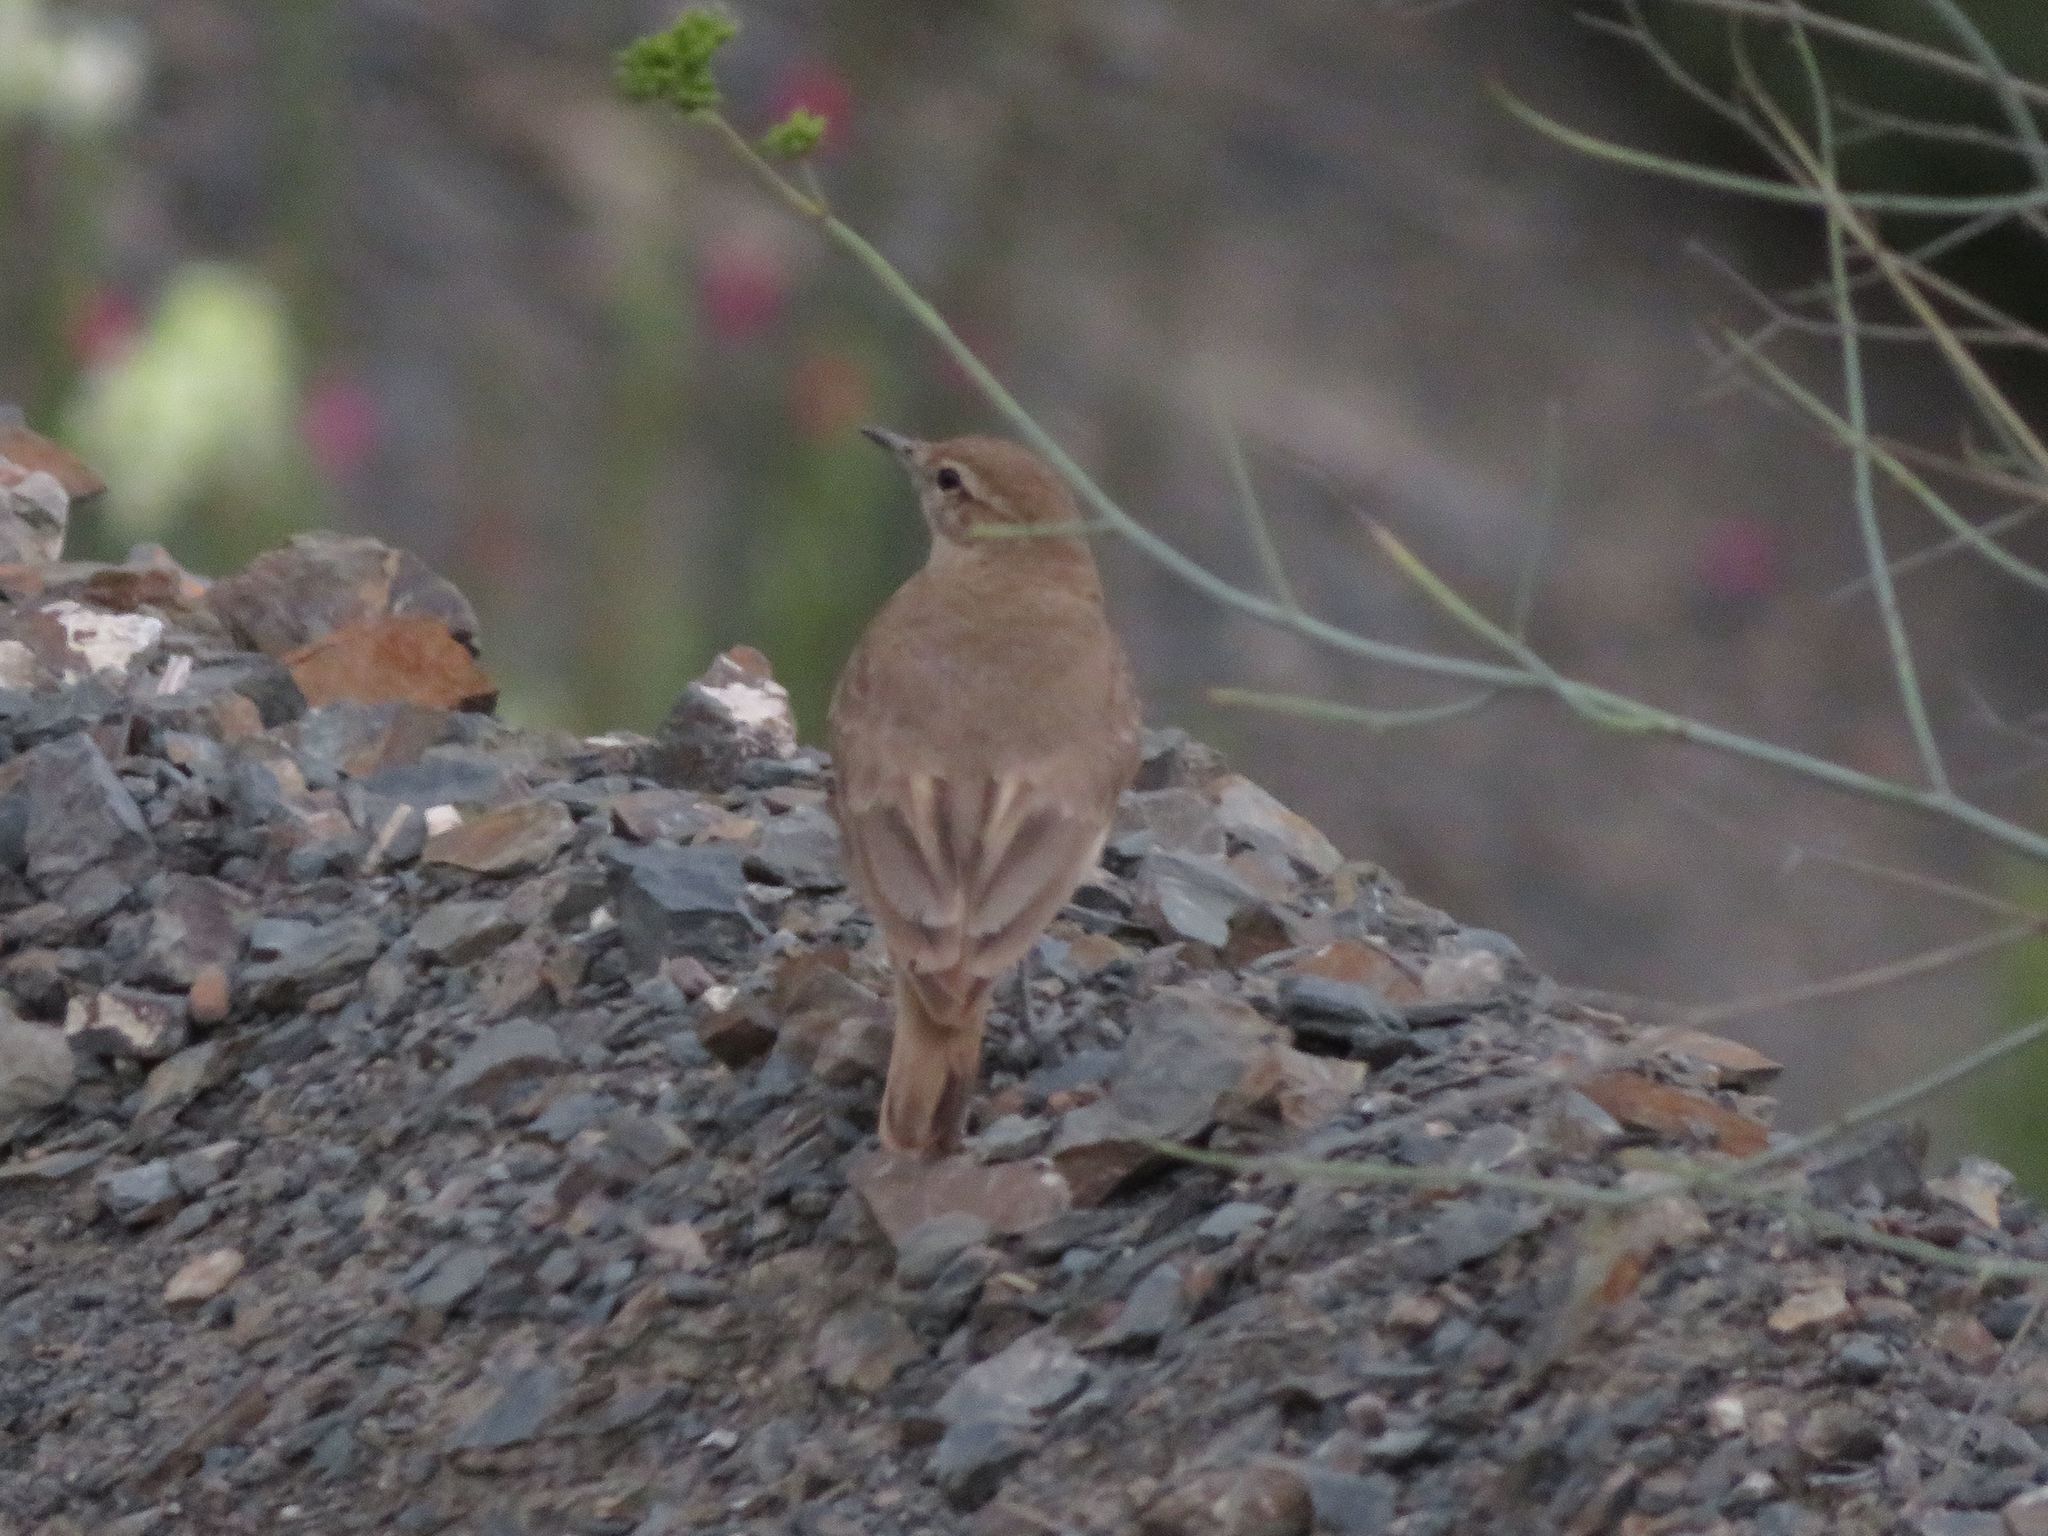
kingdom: Animalia
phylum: Chordata
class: Aves
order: Passeriformes
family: Furnariidae
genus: Geositta
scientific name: Geositta rufipennis
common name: Rufous-banded miner
